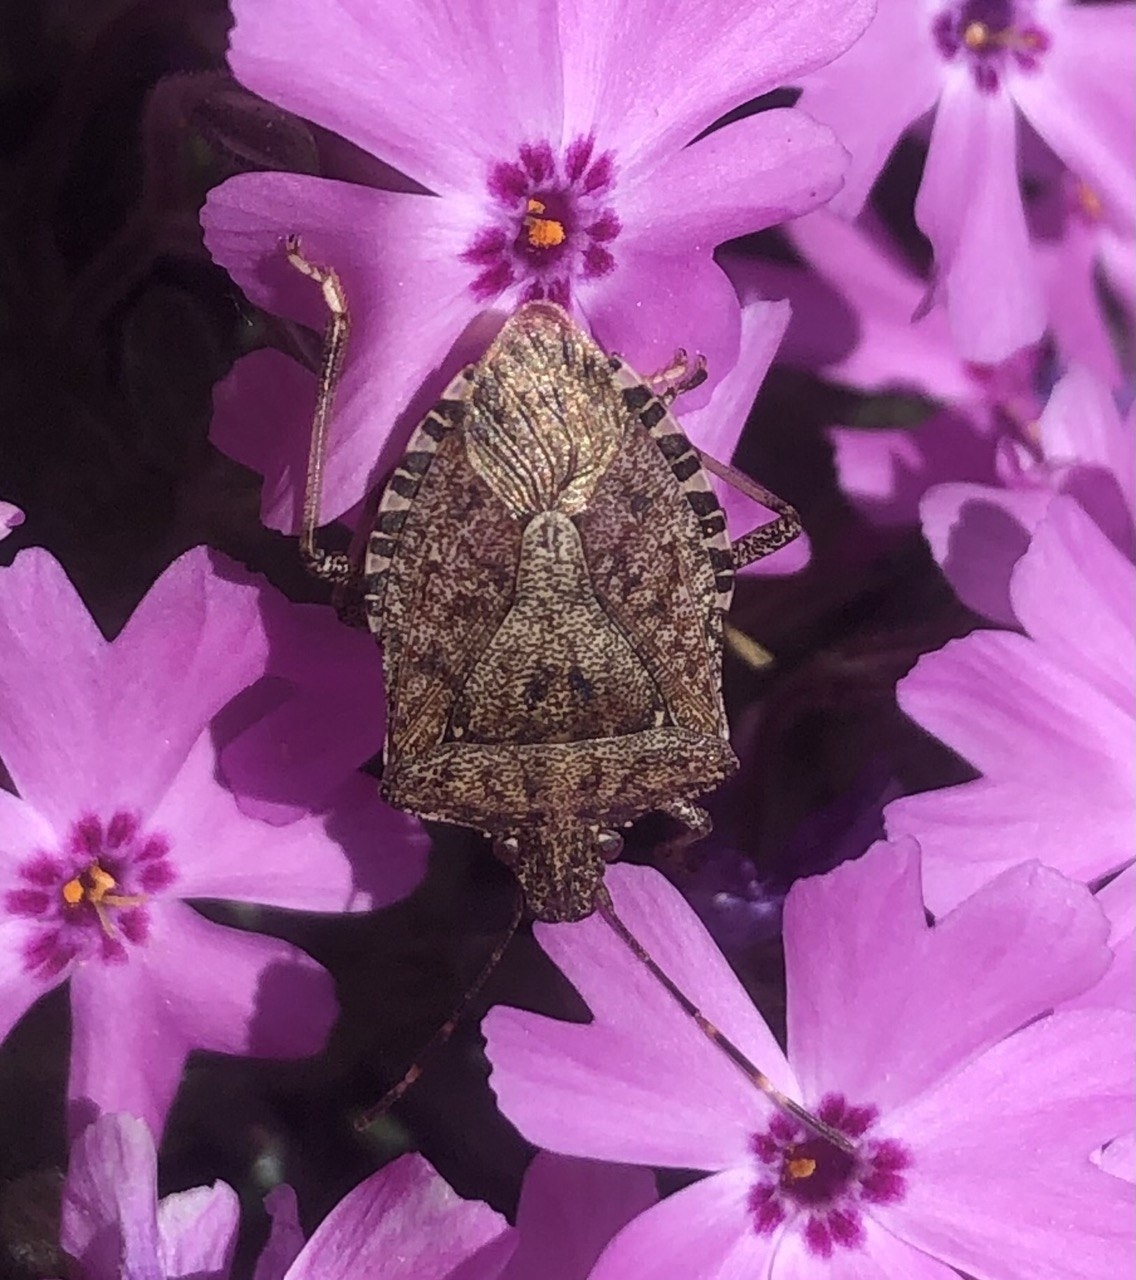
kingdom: Animalia
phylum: Arthropoda
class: Insecta
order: Hemiptera
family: Pentatomidae
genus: Halyomorpha
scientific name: Halyomorpha halys
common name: Brown marmorated stink bug
